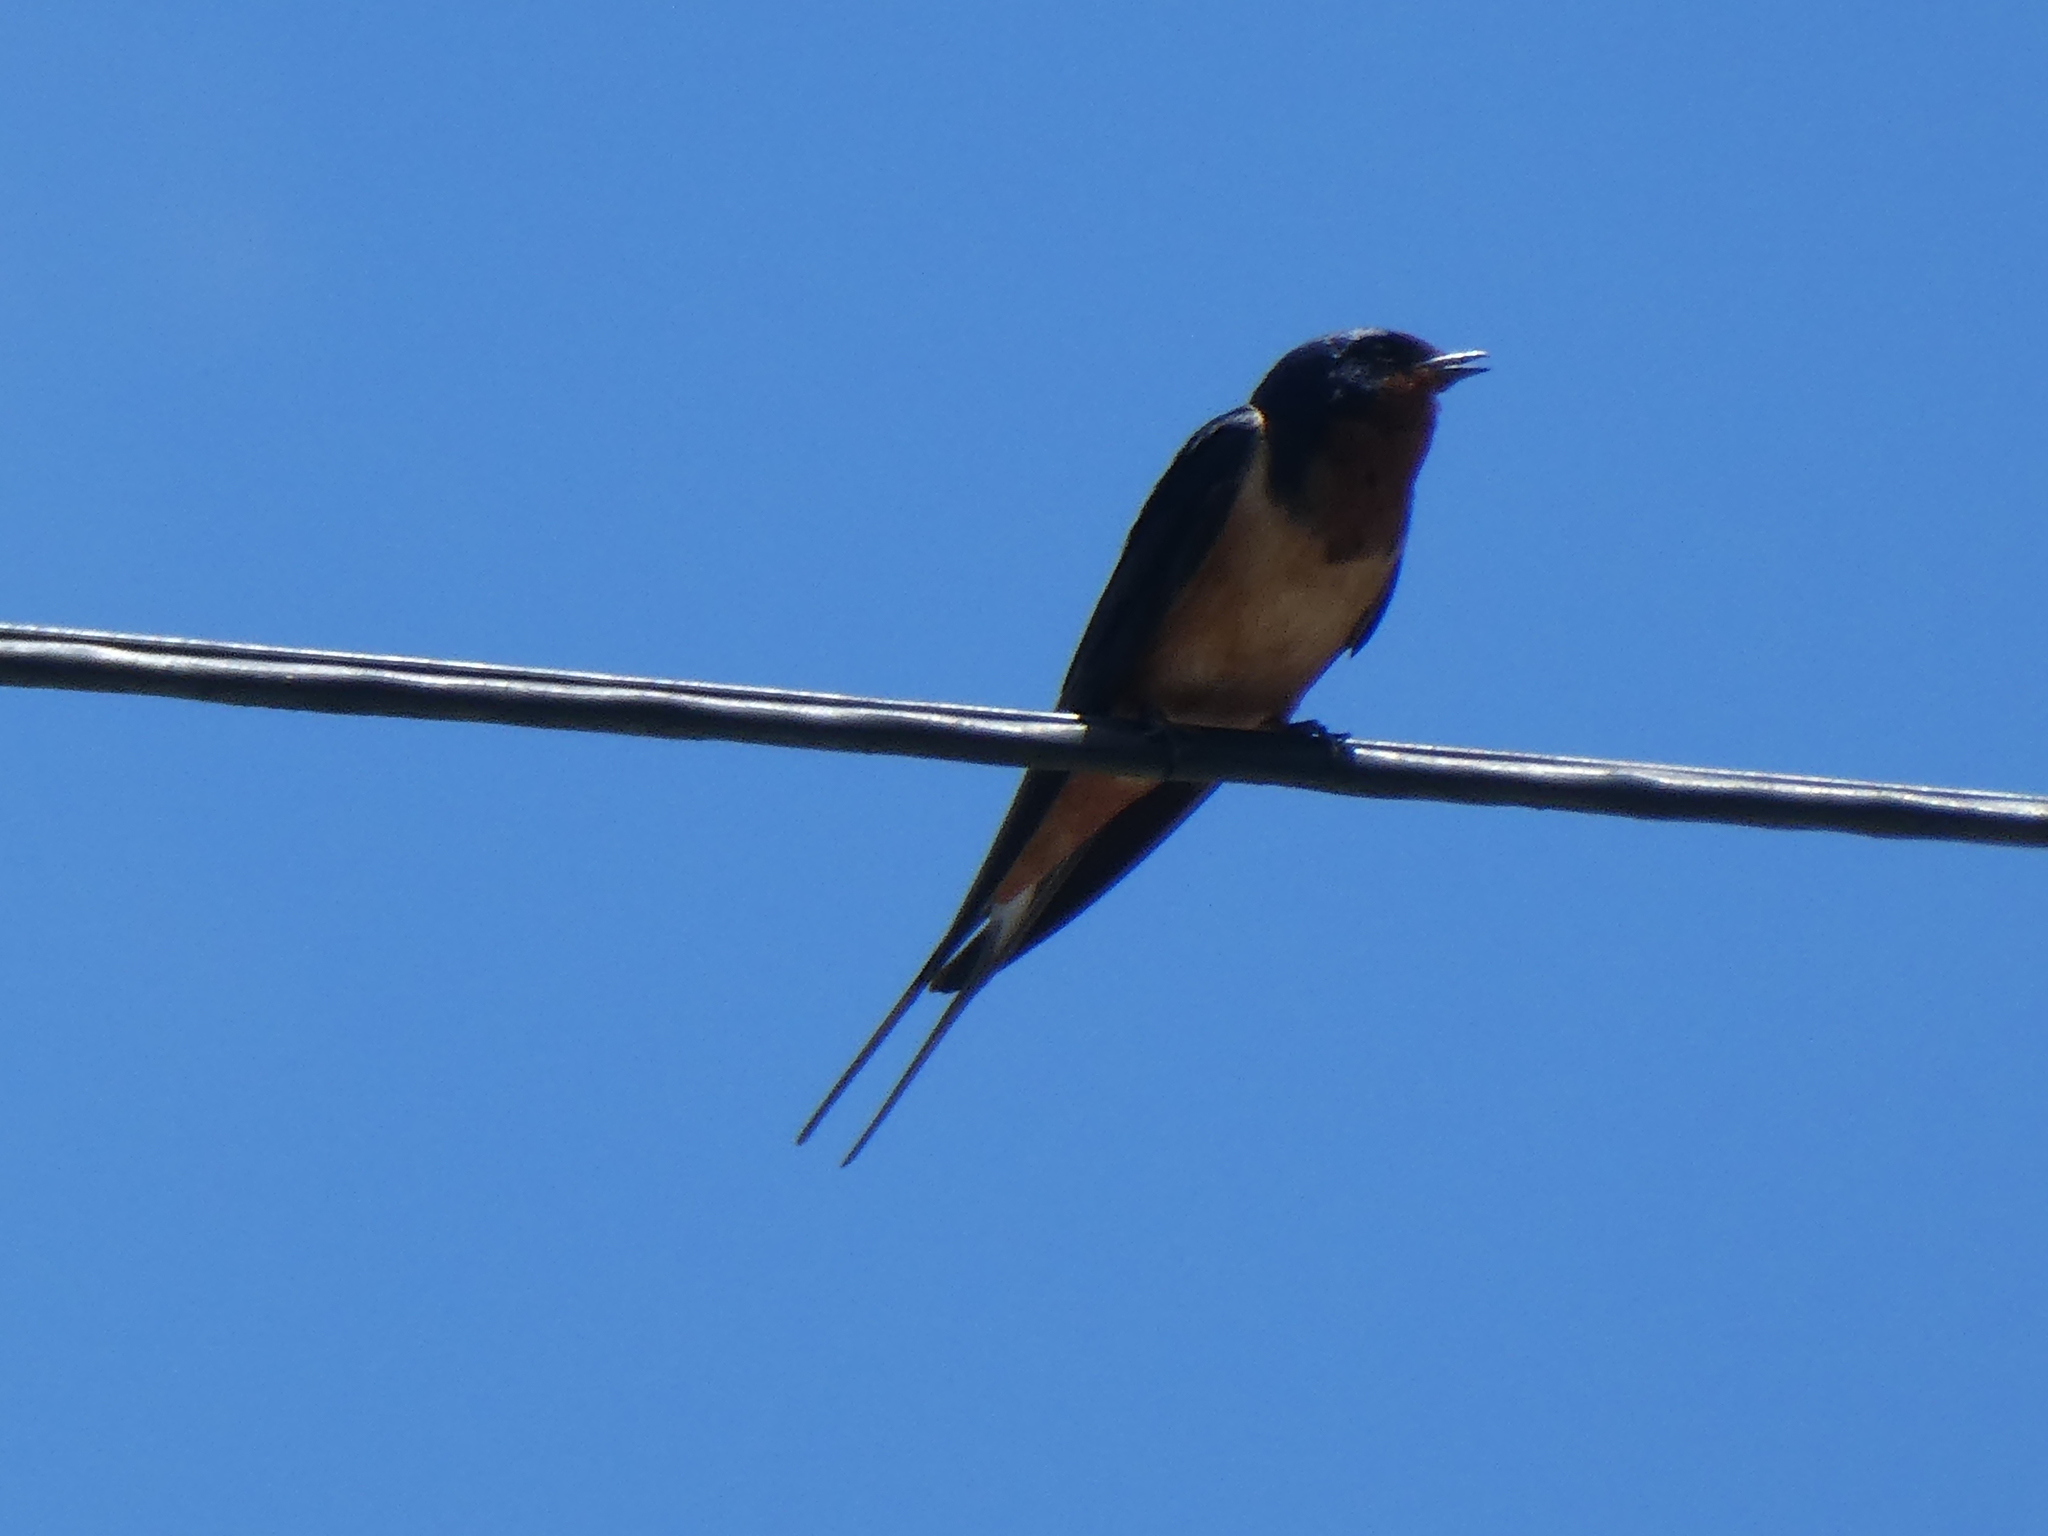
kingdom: Animalia
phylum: Chordata
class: Aves
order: Passeriformes
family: Hirundinidae
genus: Hirundo
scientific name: Hirundo rustica
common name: Barn swallow
